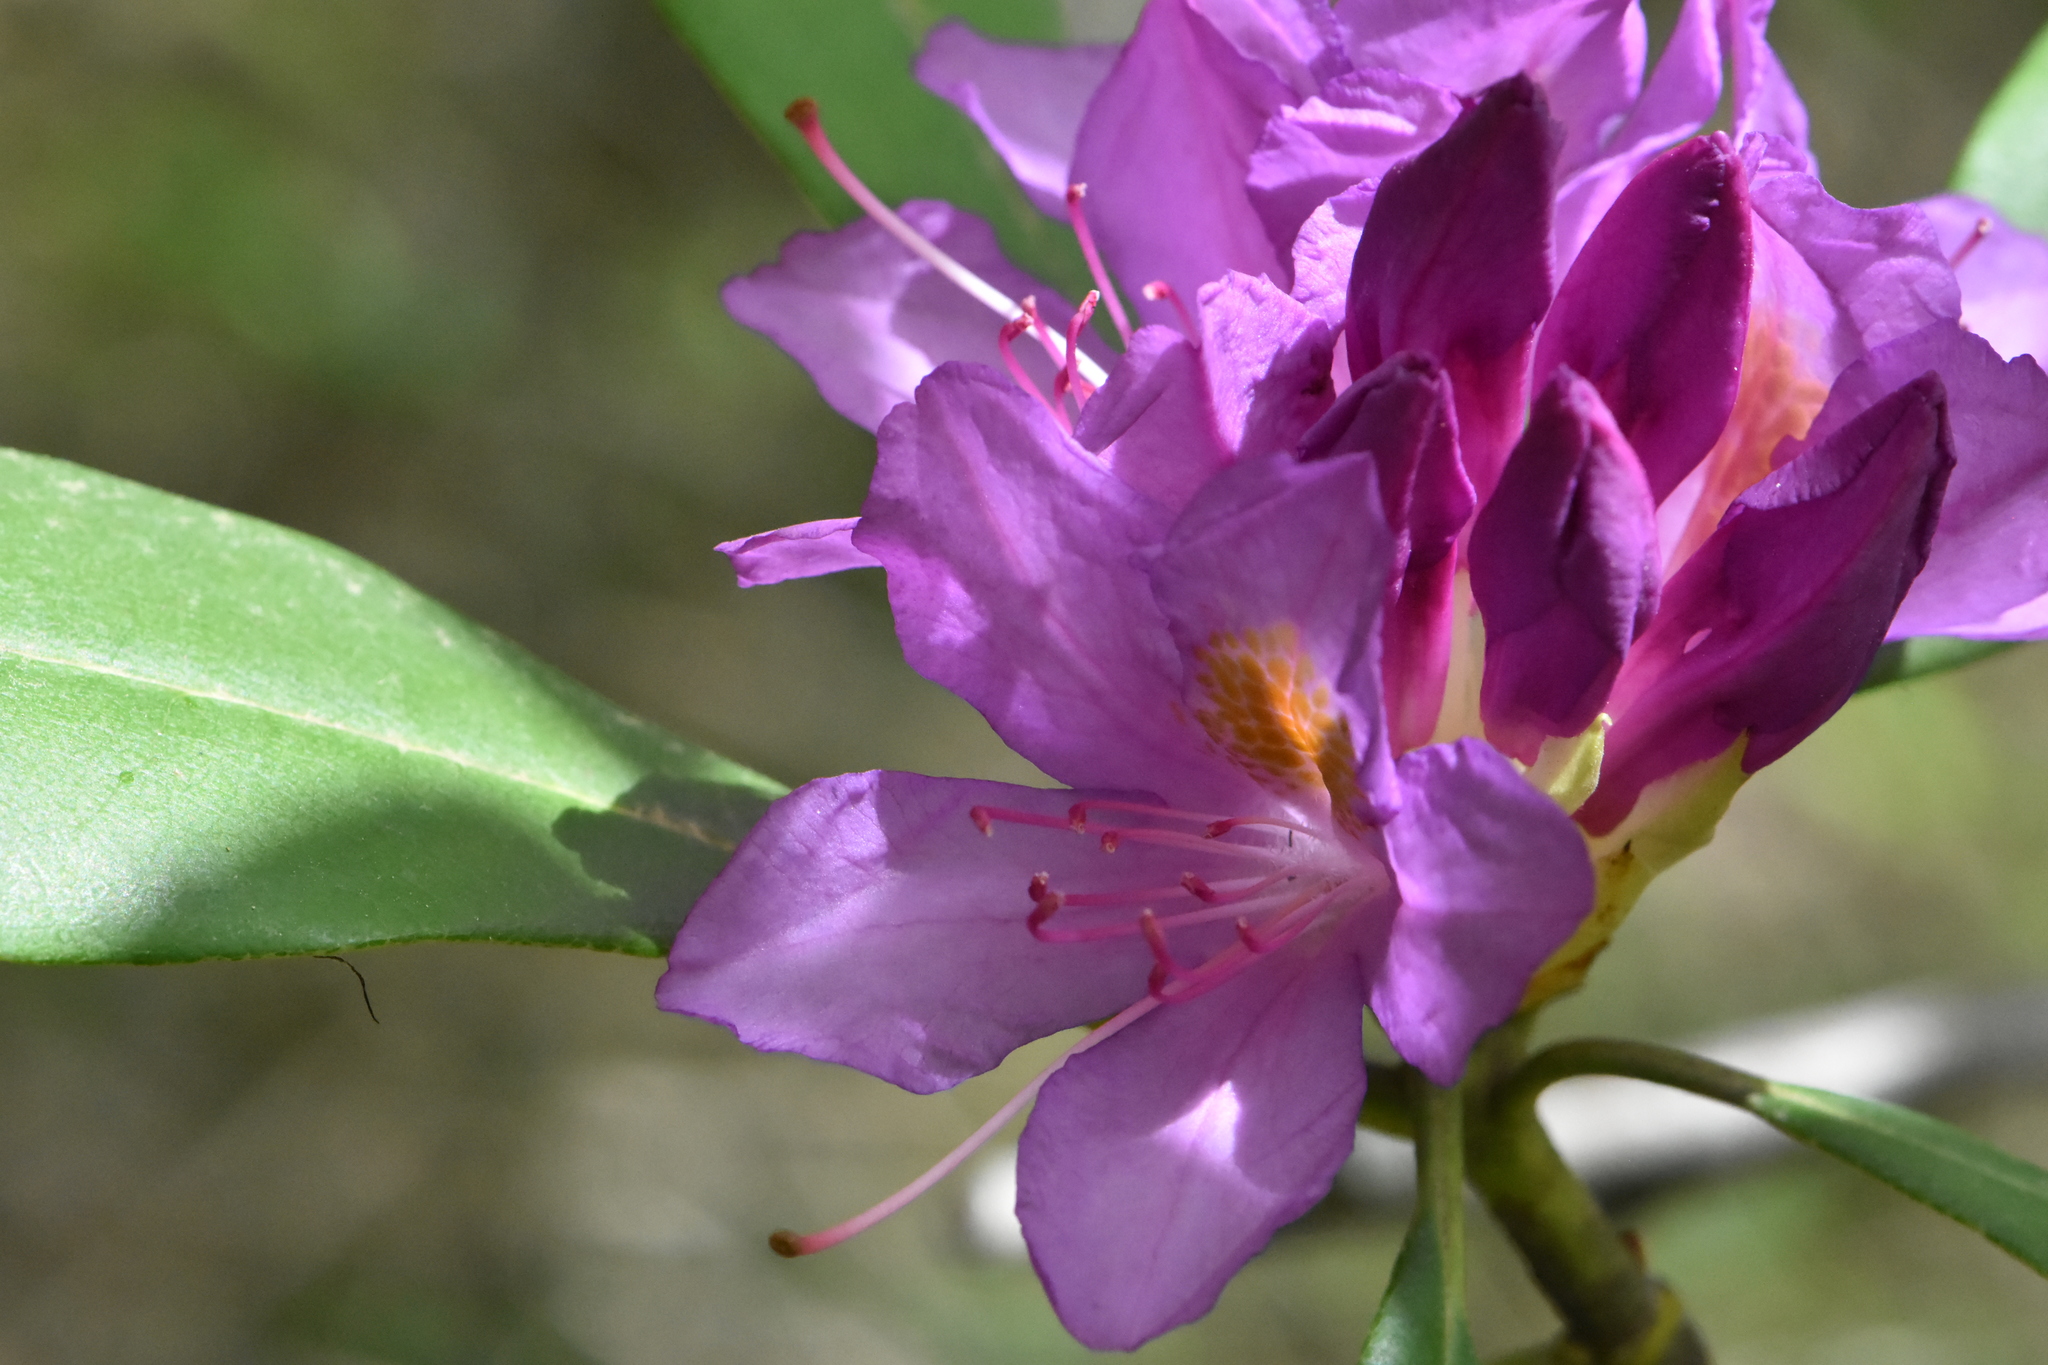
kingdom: Plantae
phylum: Tracheophyta
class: Magnoliopsida
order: Ericales
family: Ericaceae
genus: Rhododendron
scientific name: Rhododendron ponticum
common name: Rhododendron
